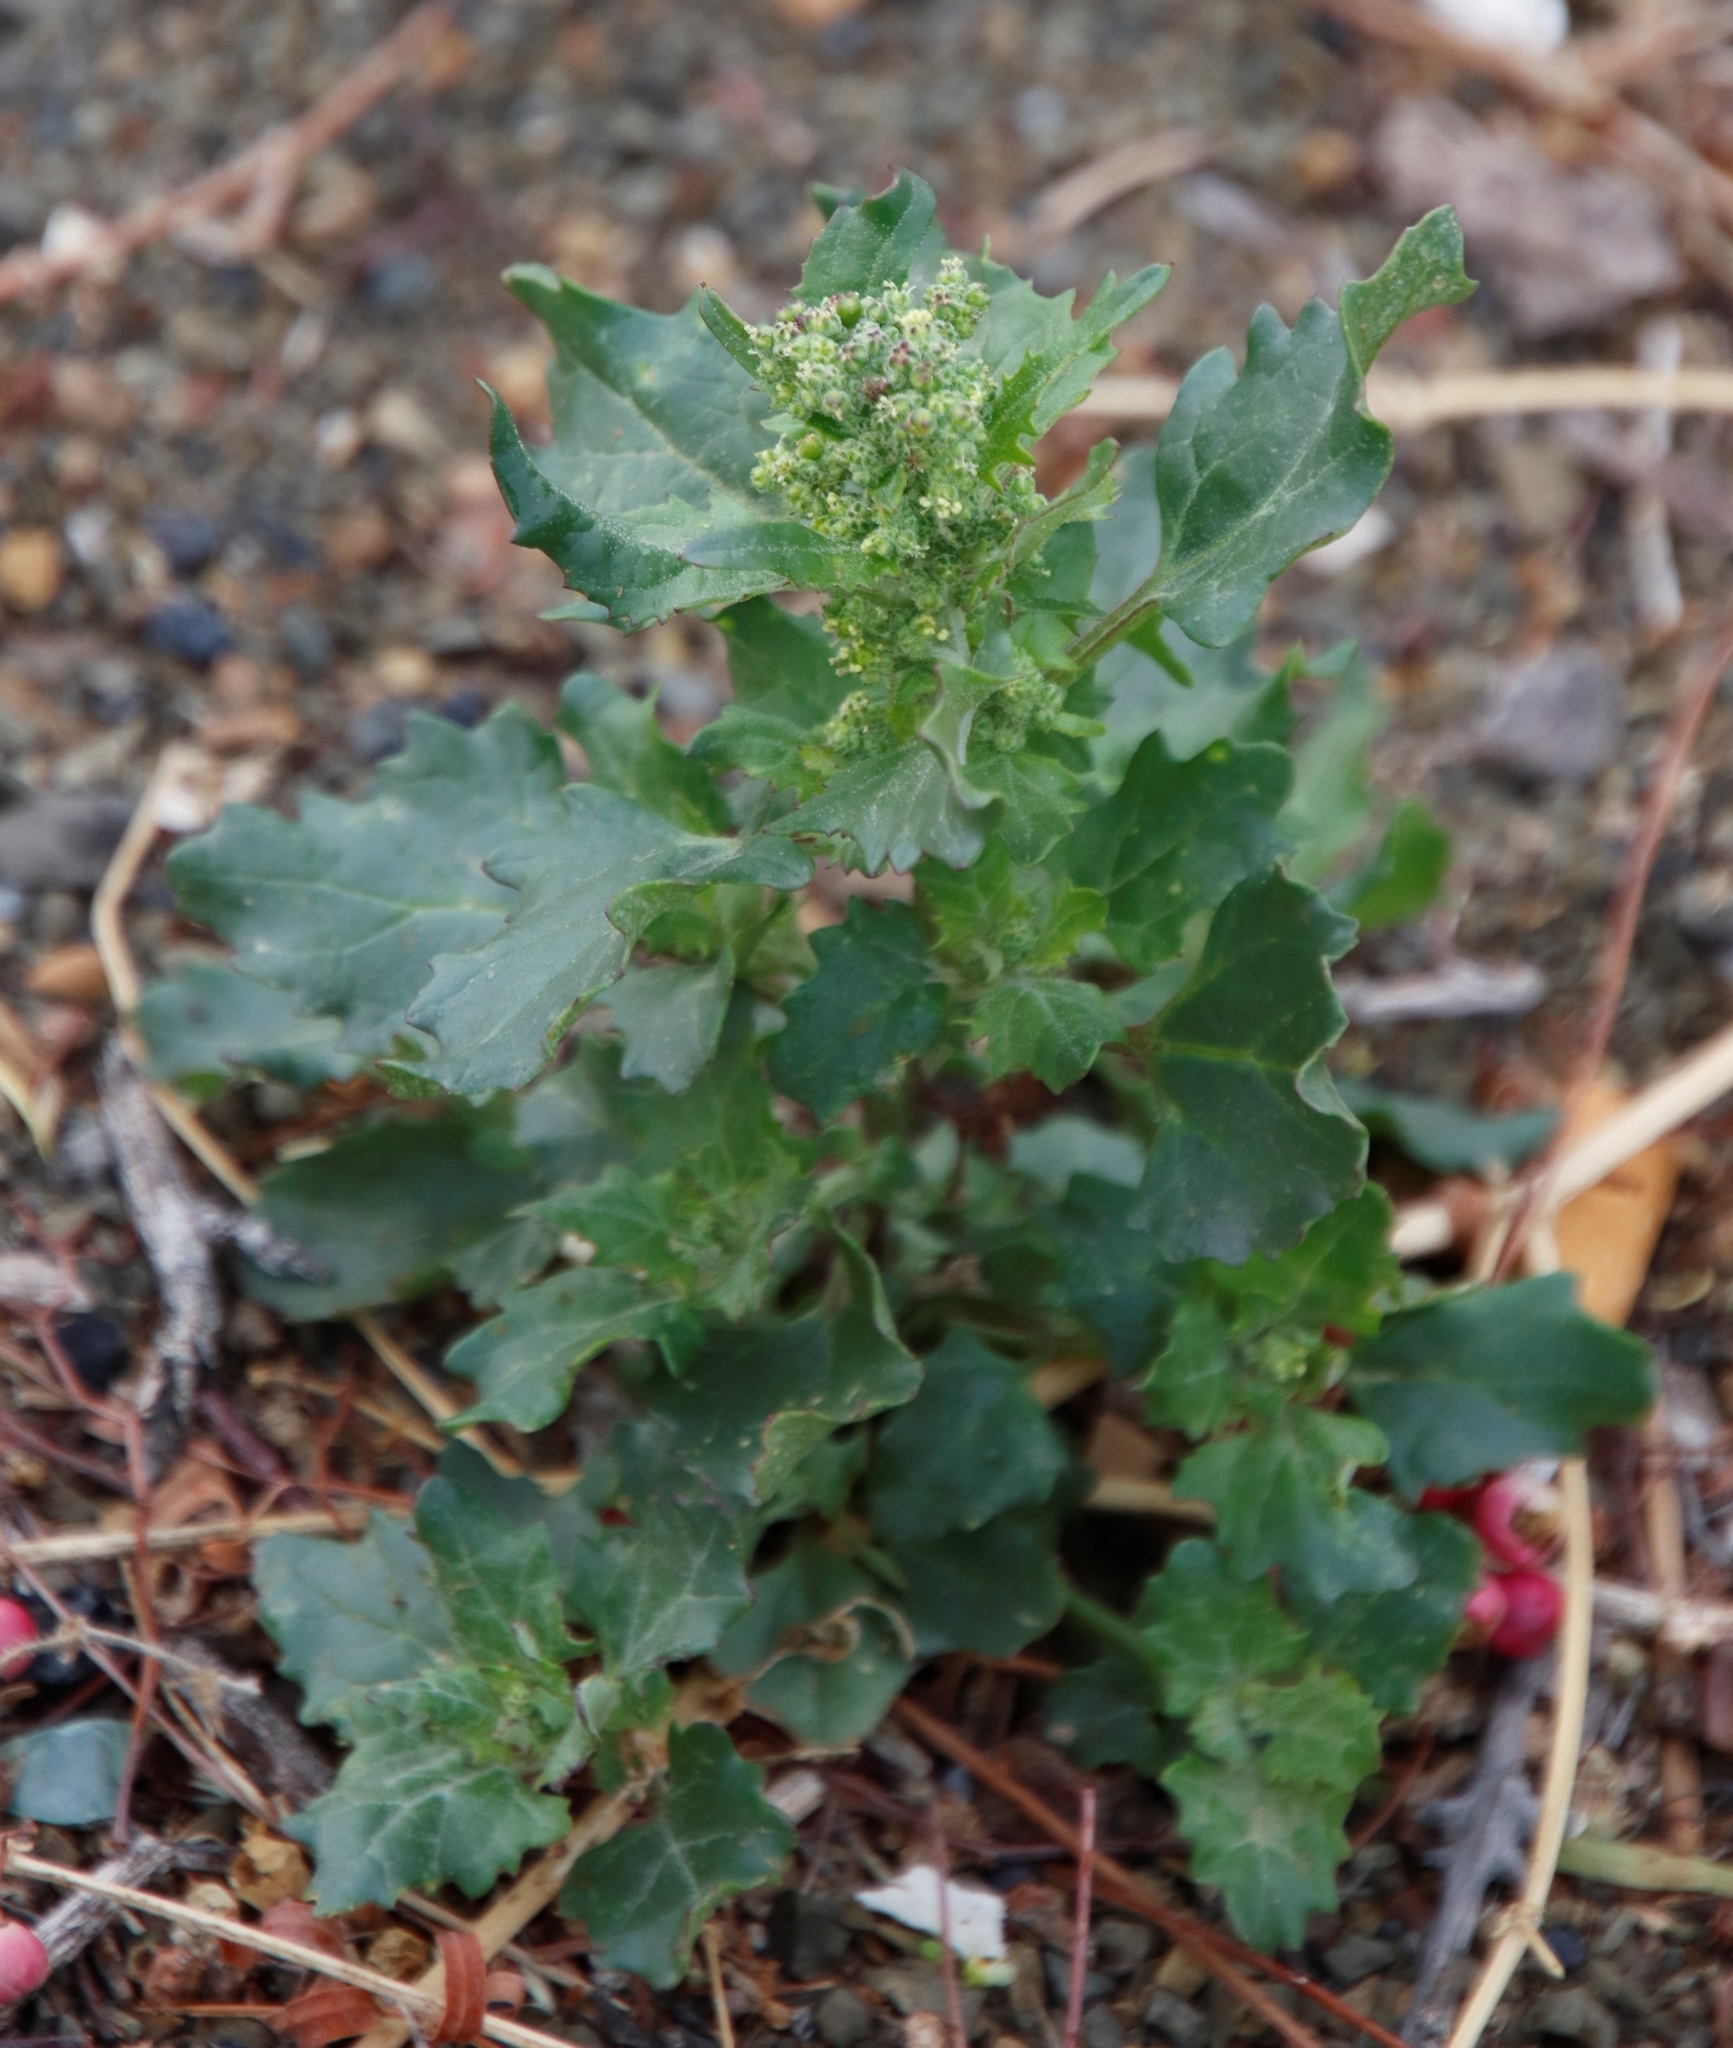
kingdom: Plantae
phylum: Tracheophyta
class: Magnoliopsida
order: Caryophyllales
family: Amaranthaceae
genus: Chenopodiastrum
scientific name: Chenopodiastrum murale
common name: Sowbane
